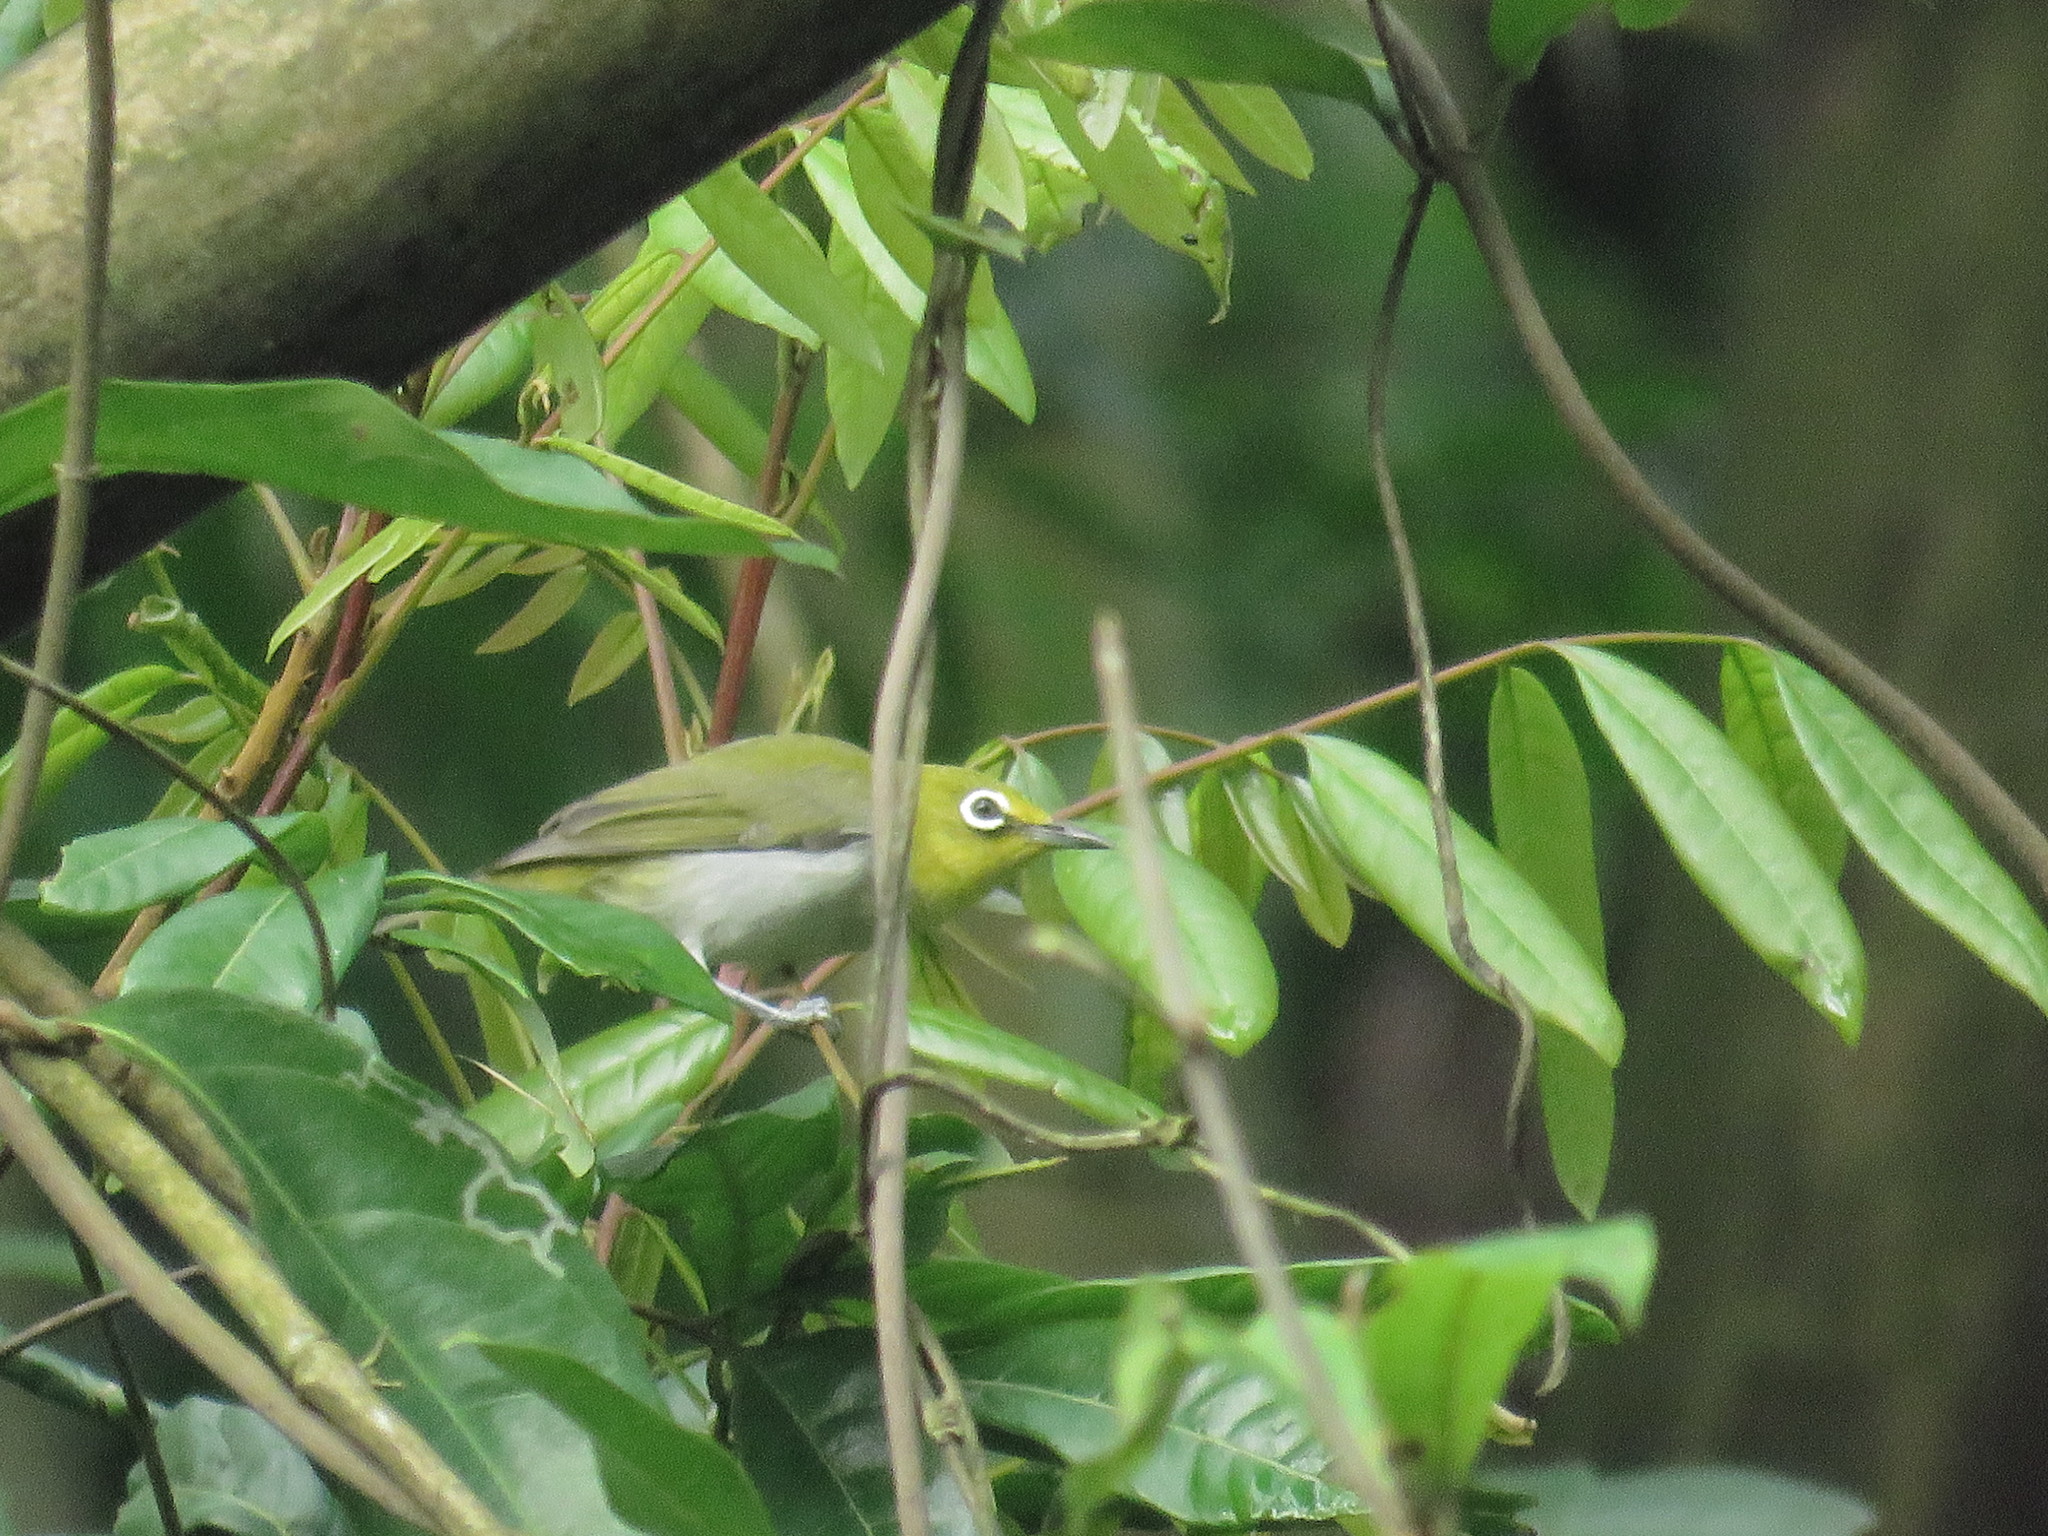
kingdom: Animalia
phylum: Chordata
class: Aves
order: Passeriformes
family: Zosteropidae
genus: Zosterops
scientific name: Zosterops simplex
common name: Swinhoe's white-eye
